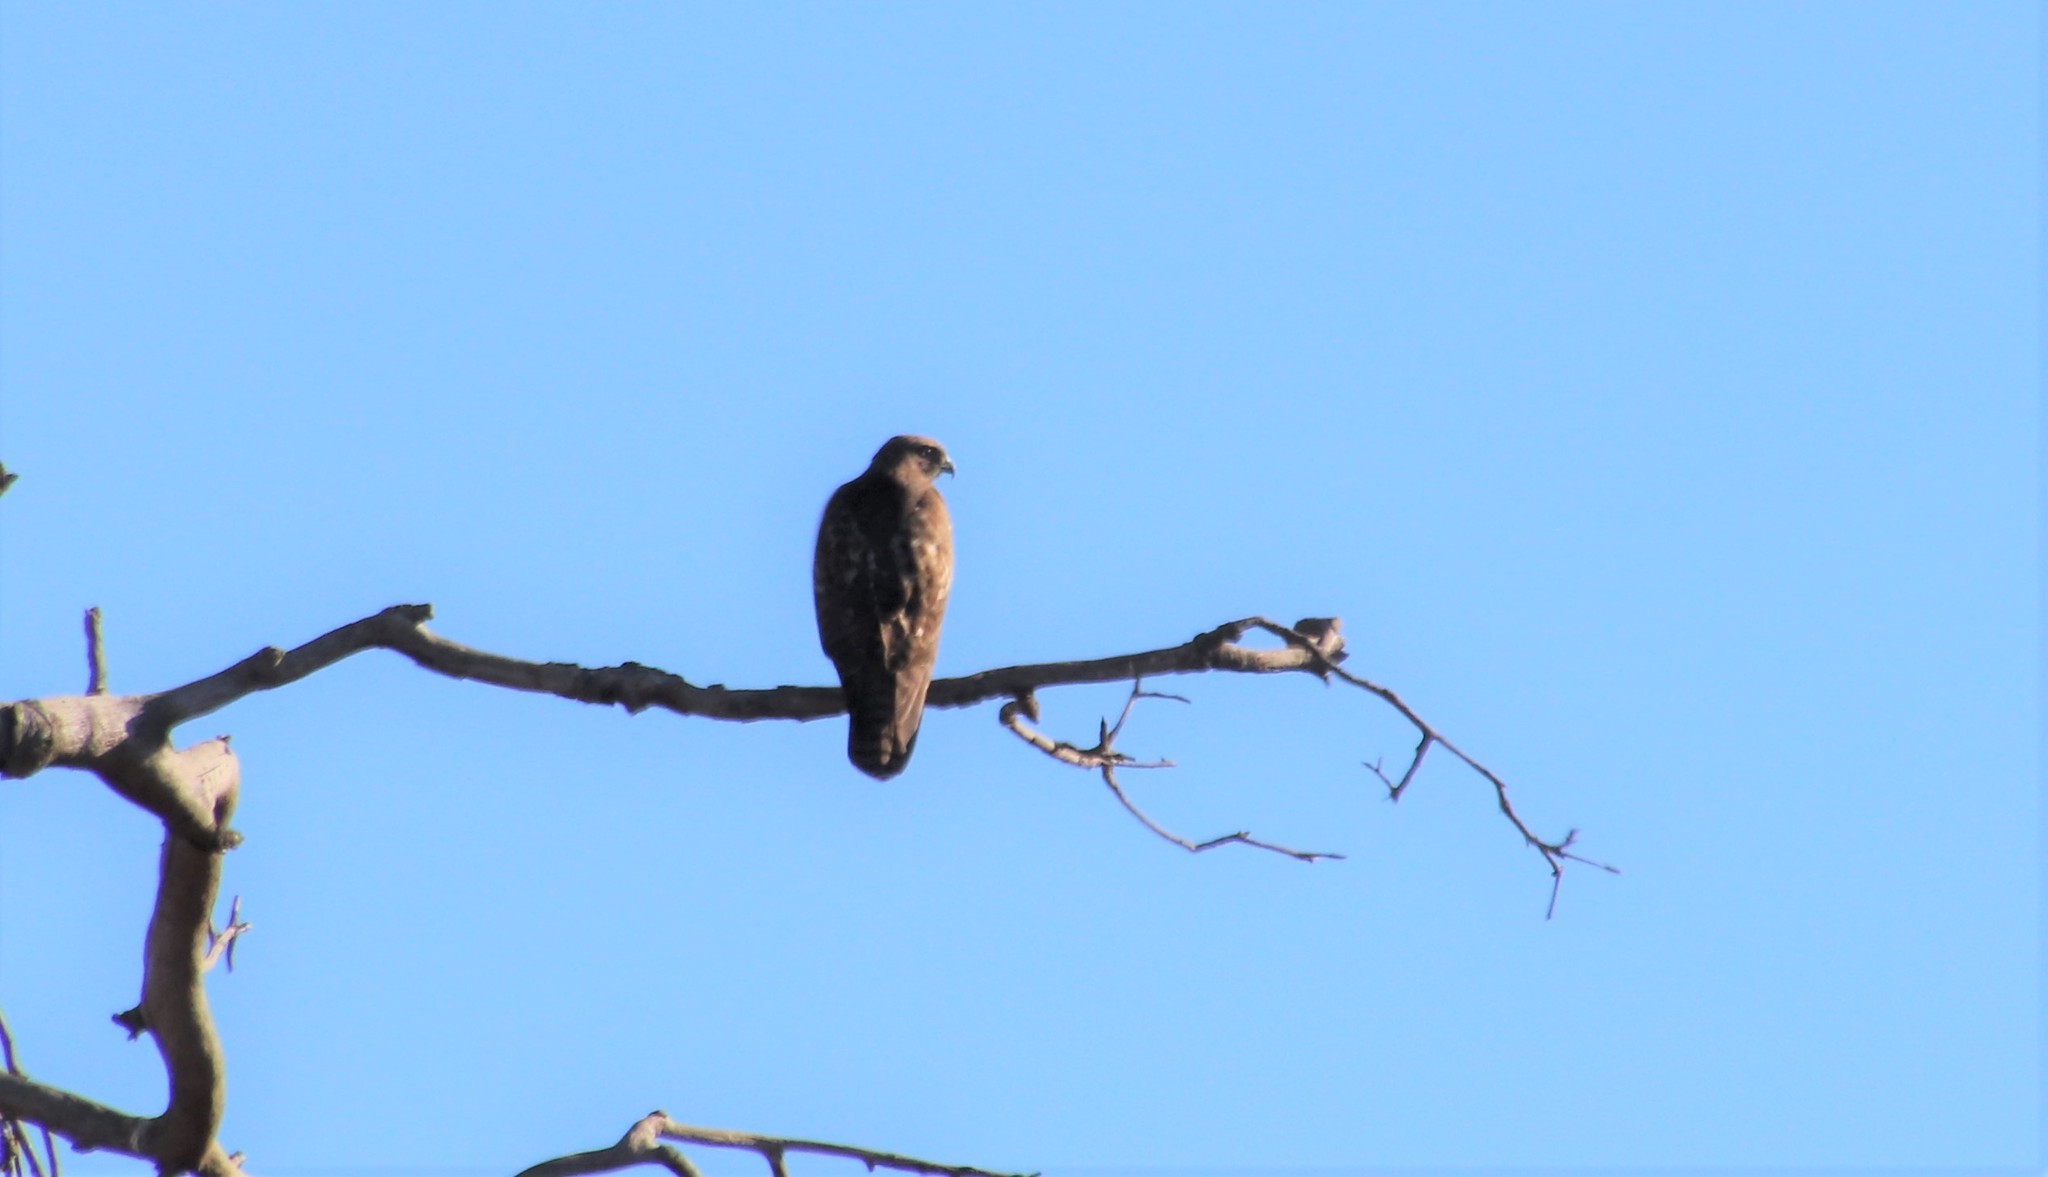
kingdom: Animalia
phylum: Chordata
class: Aves
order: Accipitriformes
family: Accipitridae
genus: Buteo
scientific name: Buteo jamaicensis
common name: Red-tailed hawk
